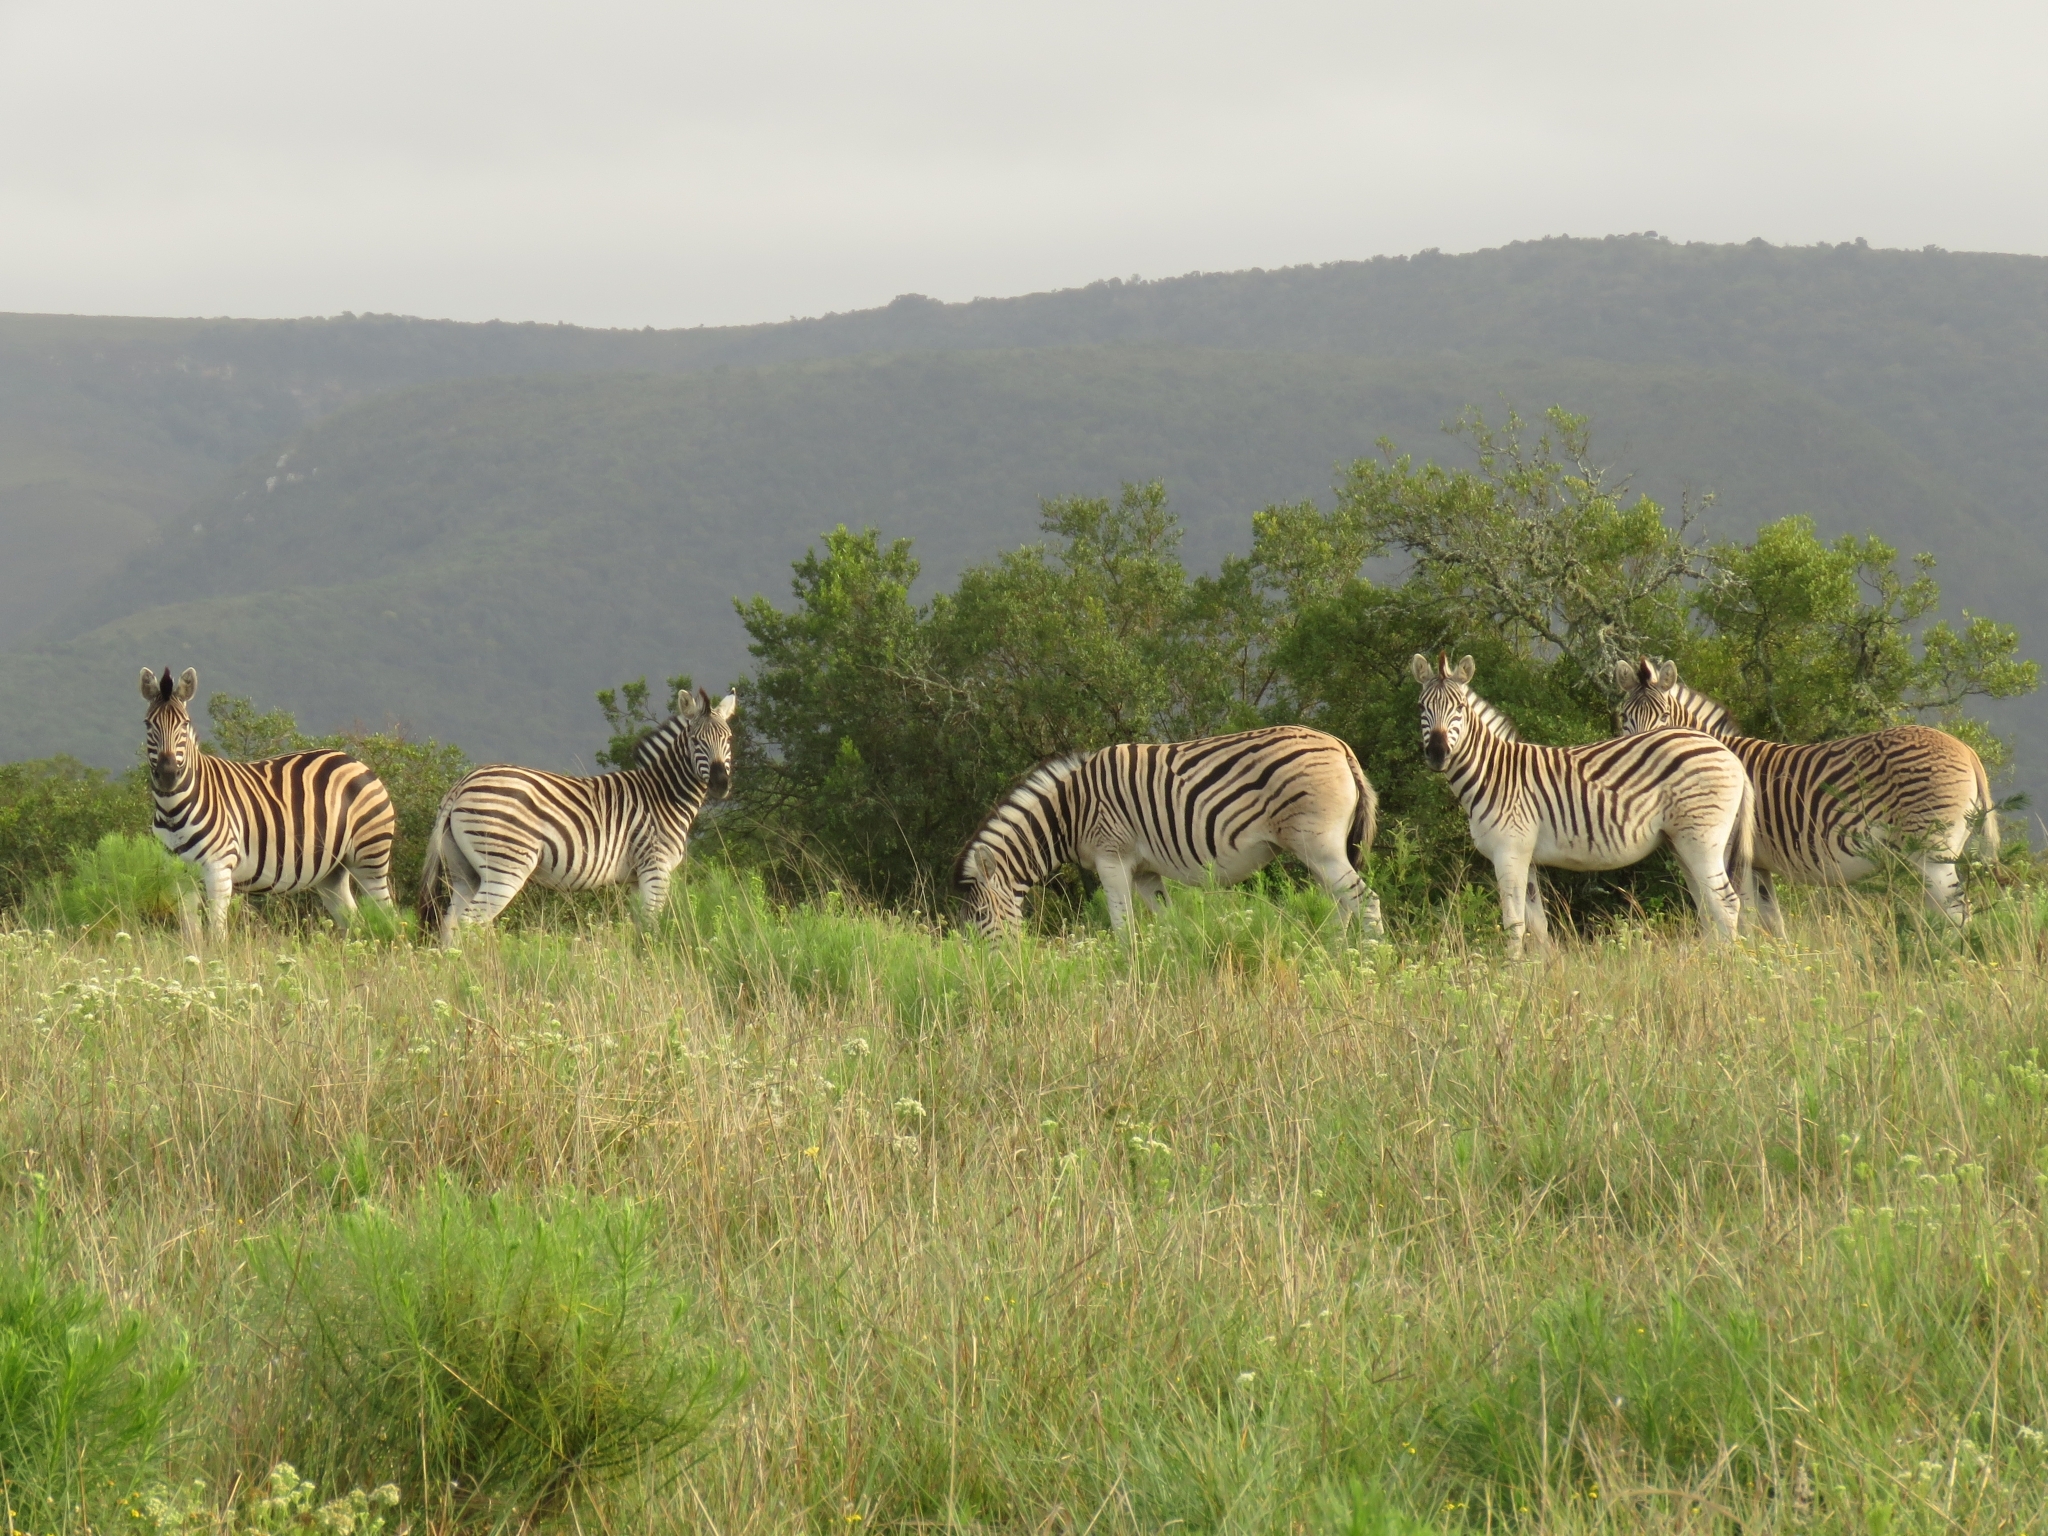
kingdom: Animalia
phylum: Chordata
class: Mammalia
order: Perissodactyla
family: Equidae
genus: Equus
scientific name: Equus quagga
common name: Plains zebra
